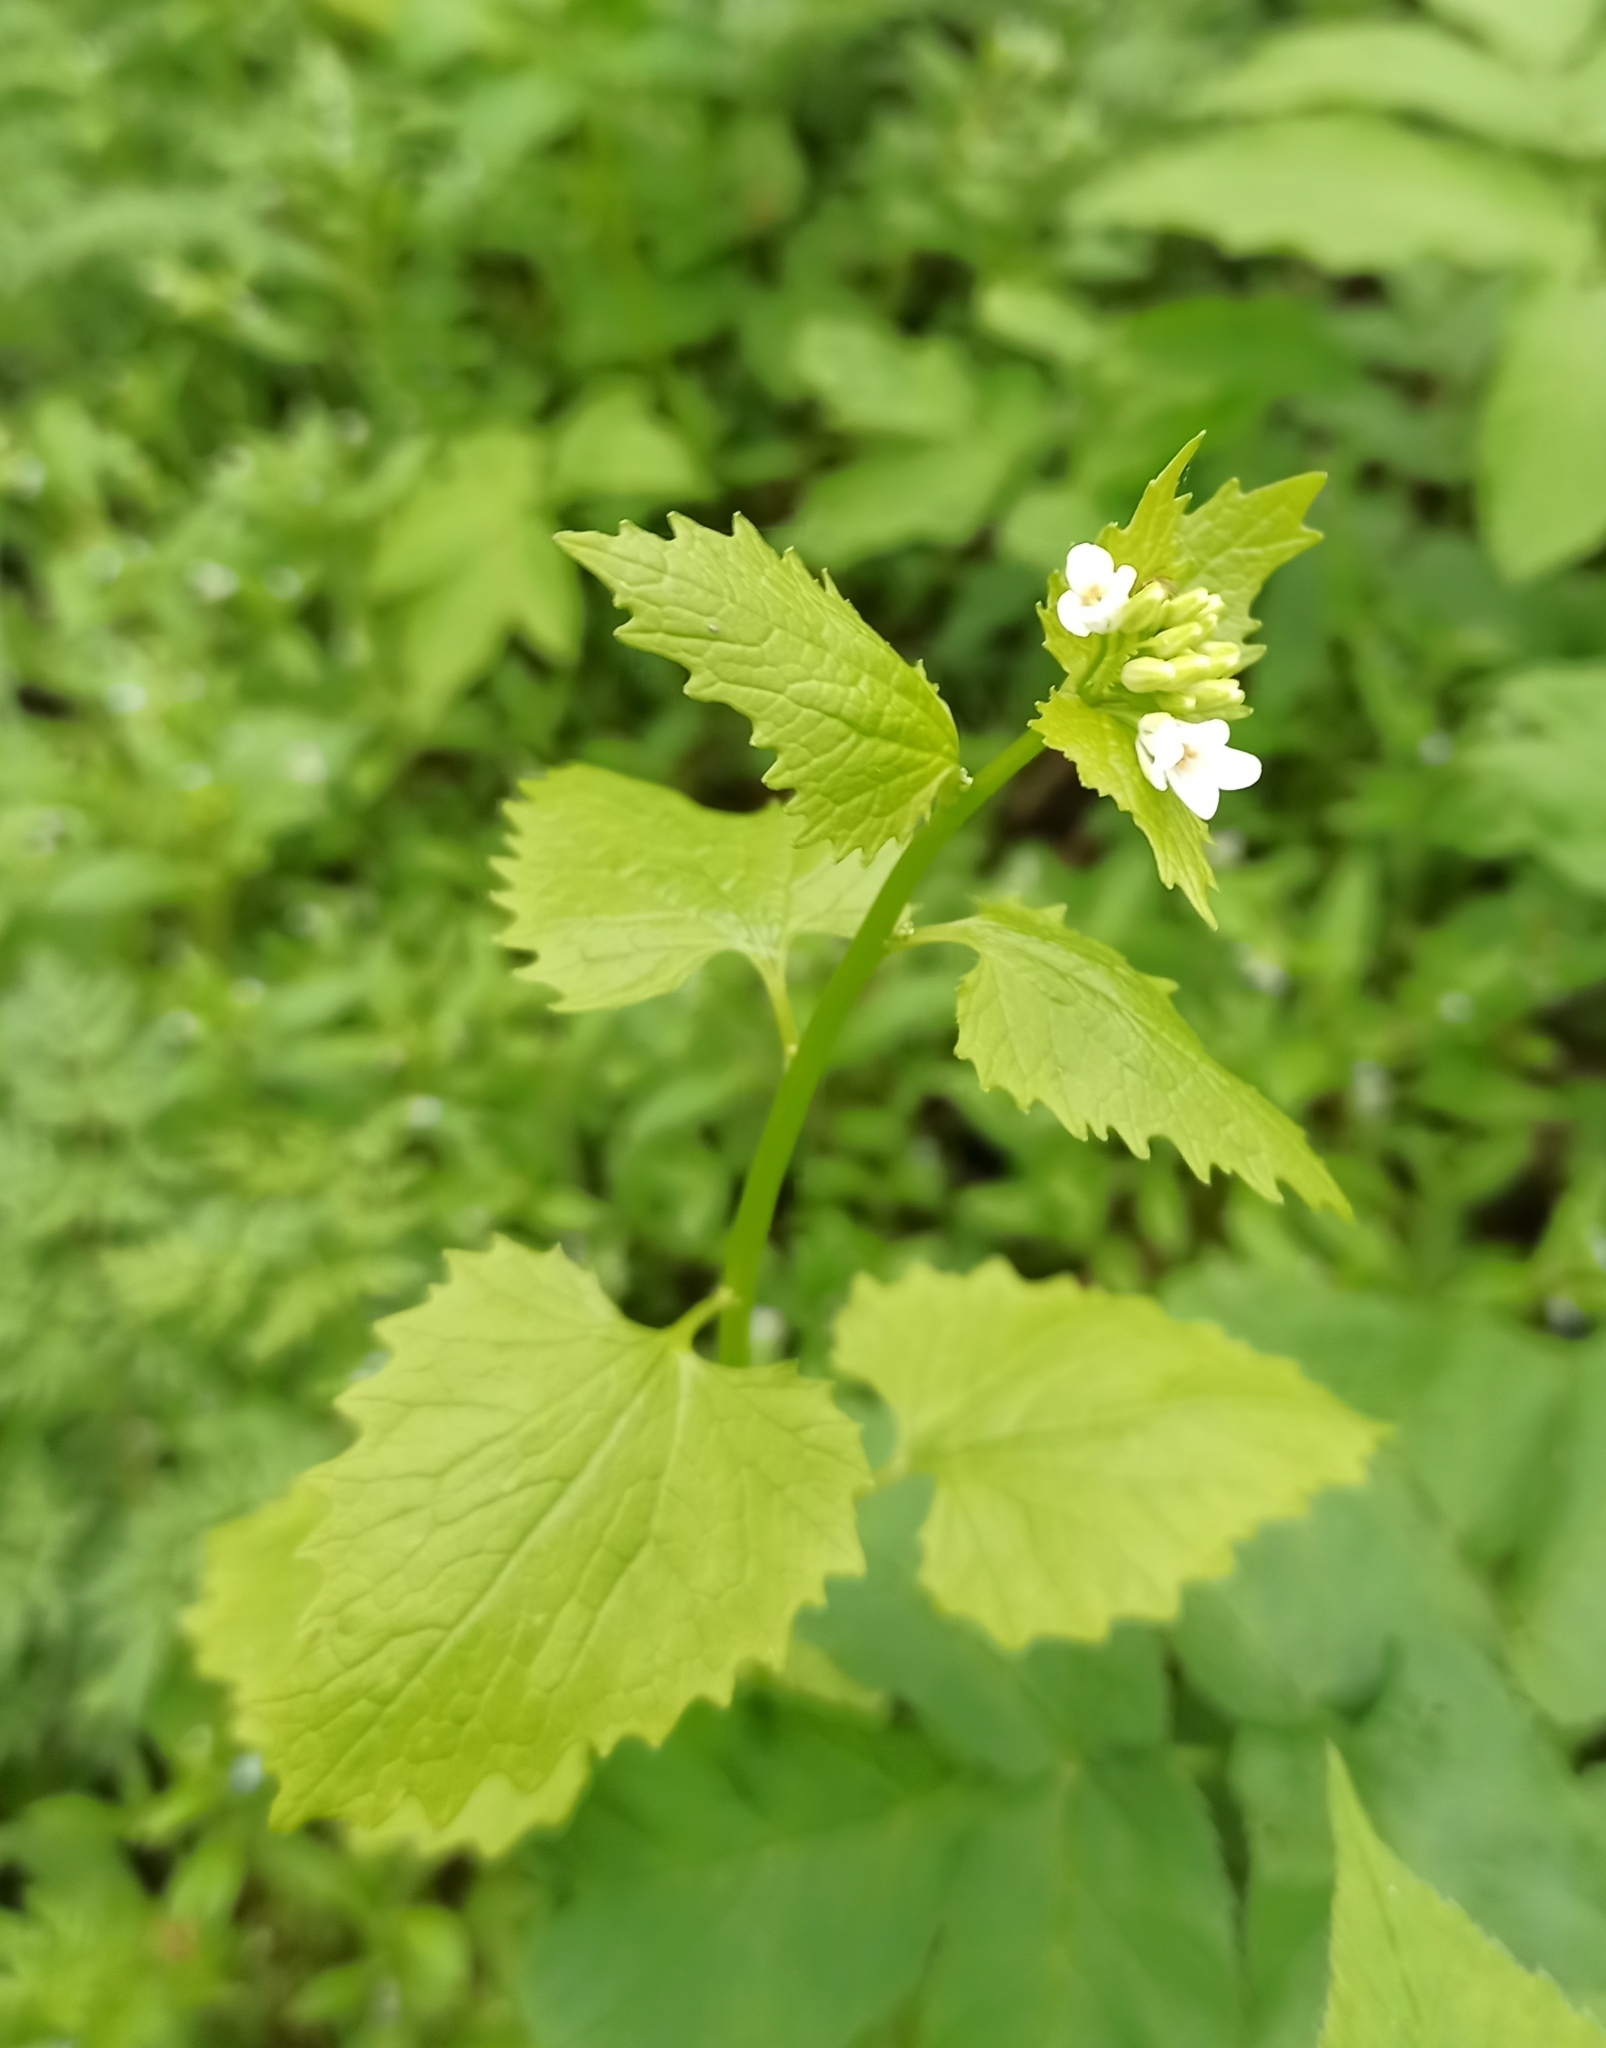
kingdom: Plantae
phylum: Tracheophyta
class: Magnoliopsida
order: Brassicales
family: Brassicaceae
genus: Alliaria
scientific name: Alliaria petiolata
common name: Garlic mustard
